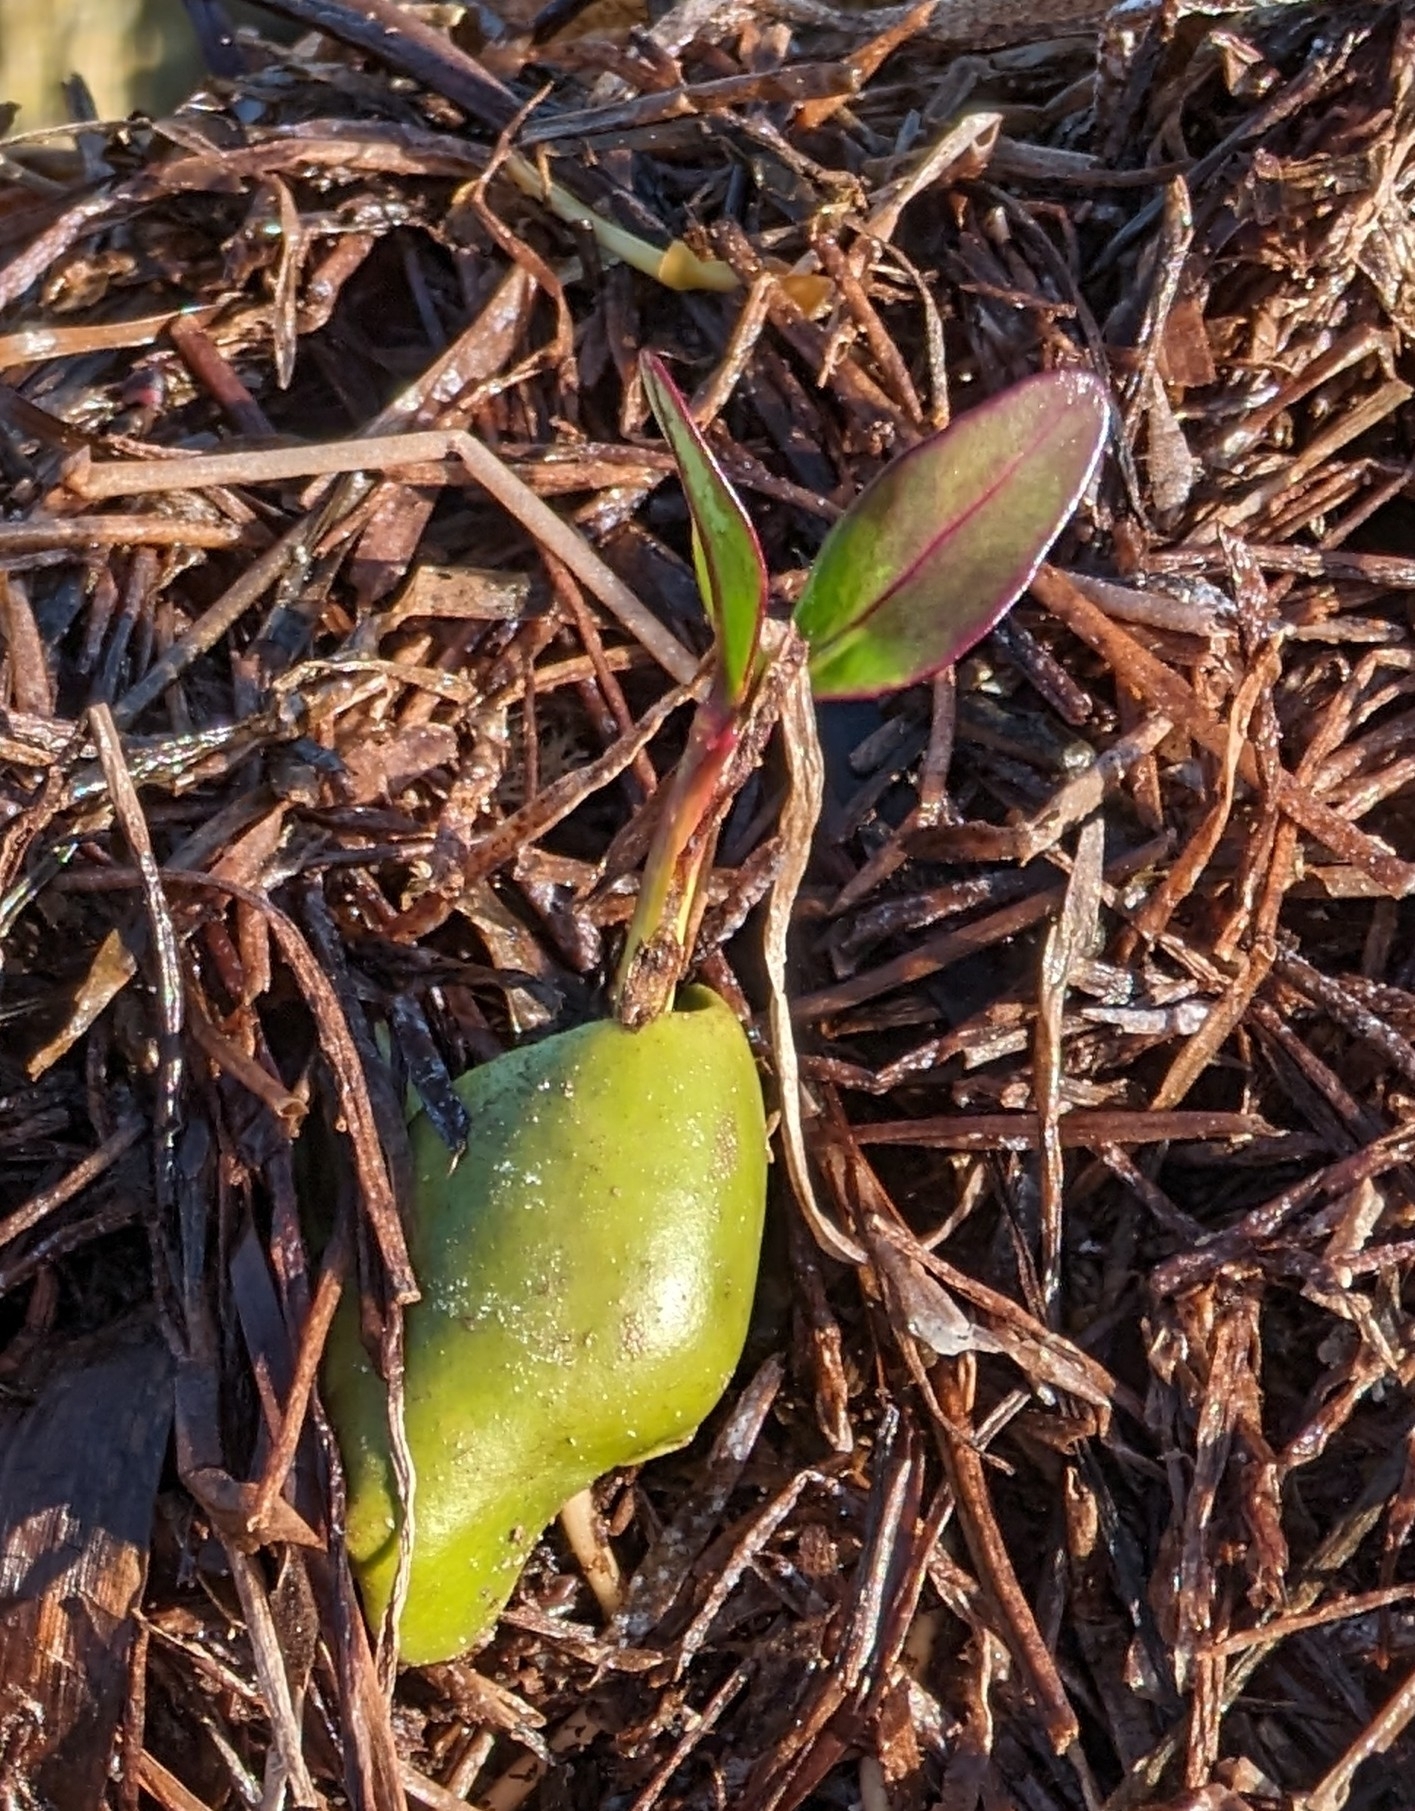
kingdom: Plantae
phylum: Tracheophyta
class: Magnoliopsida
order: Lamiales
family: Acanthaceae
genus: Avicennia
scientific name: Avicennia germinans
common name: Black mangrove
